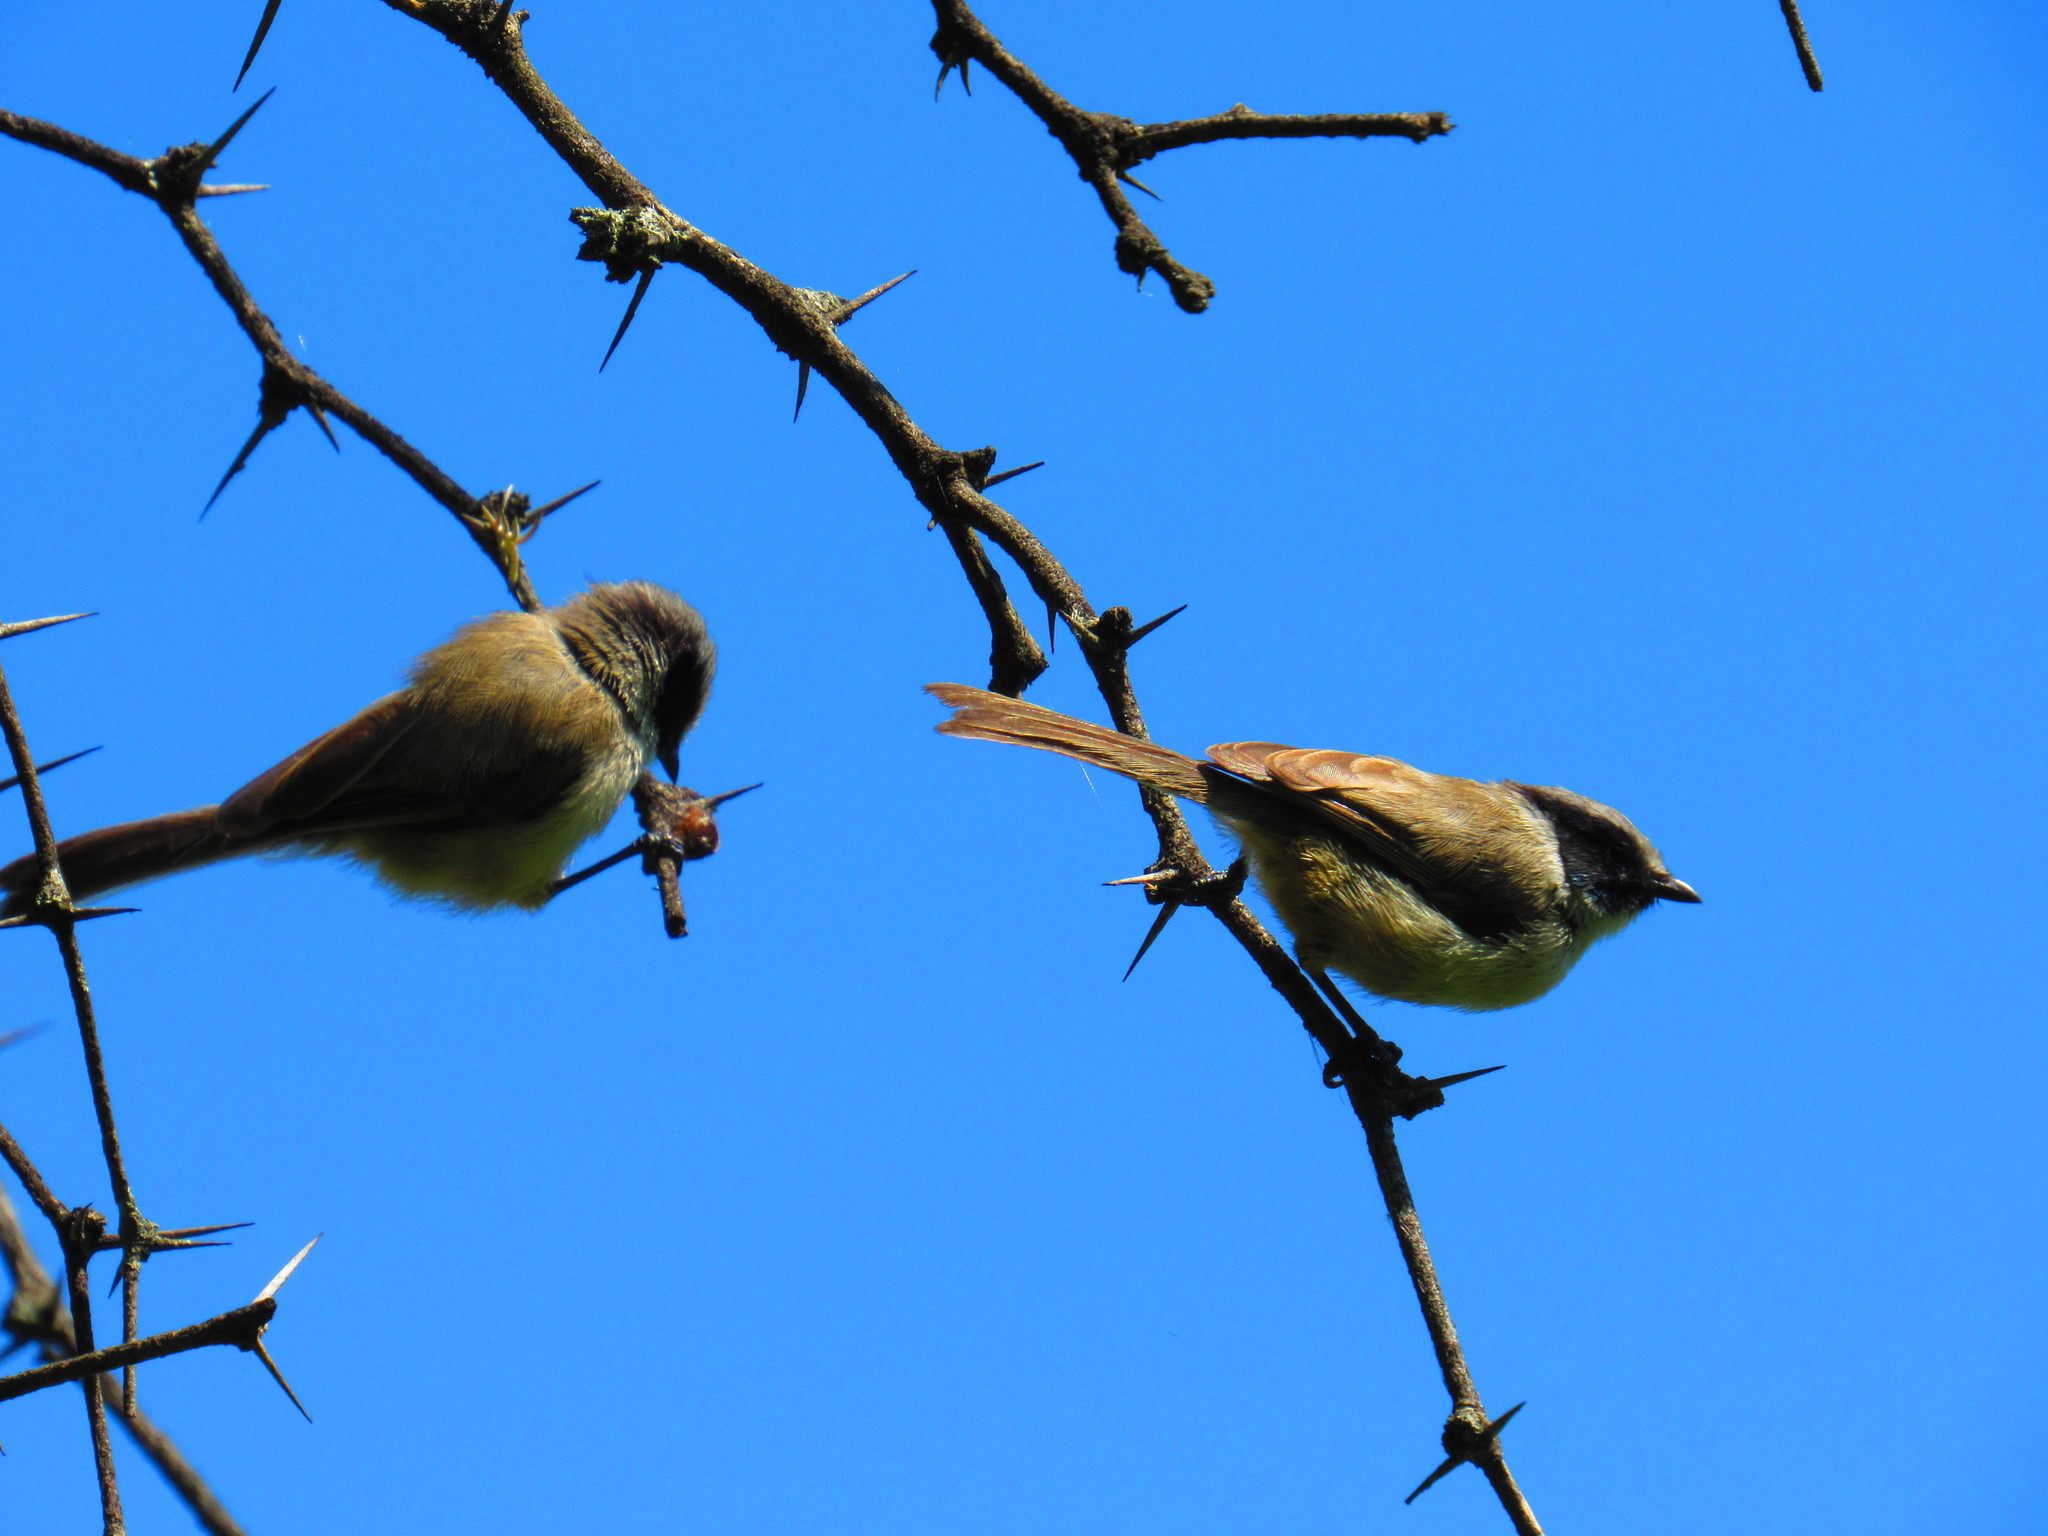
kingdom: Animalia
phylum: Chordata
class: Aves
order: Passeriformes
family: Aegithalidae
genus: Psaltriparus
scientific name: Psaltriparus minimus
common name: American bushtit
